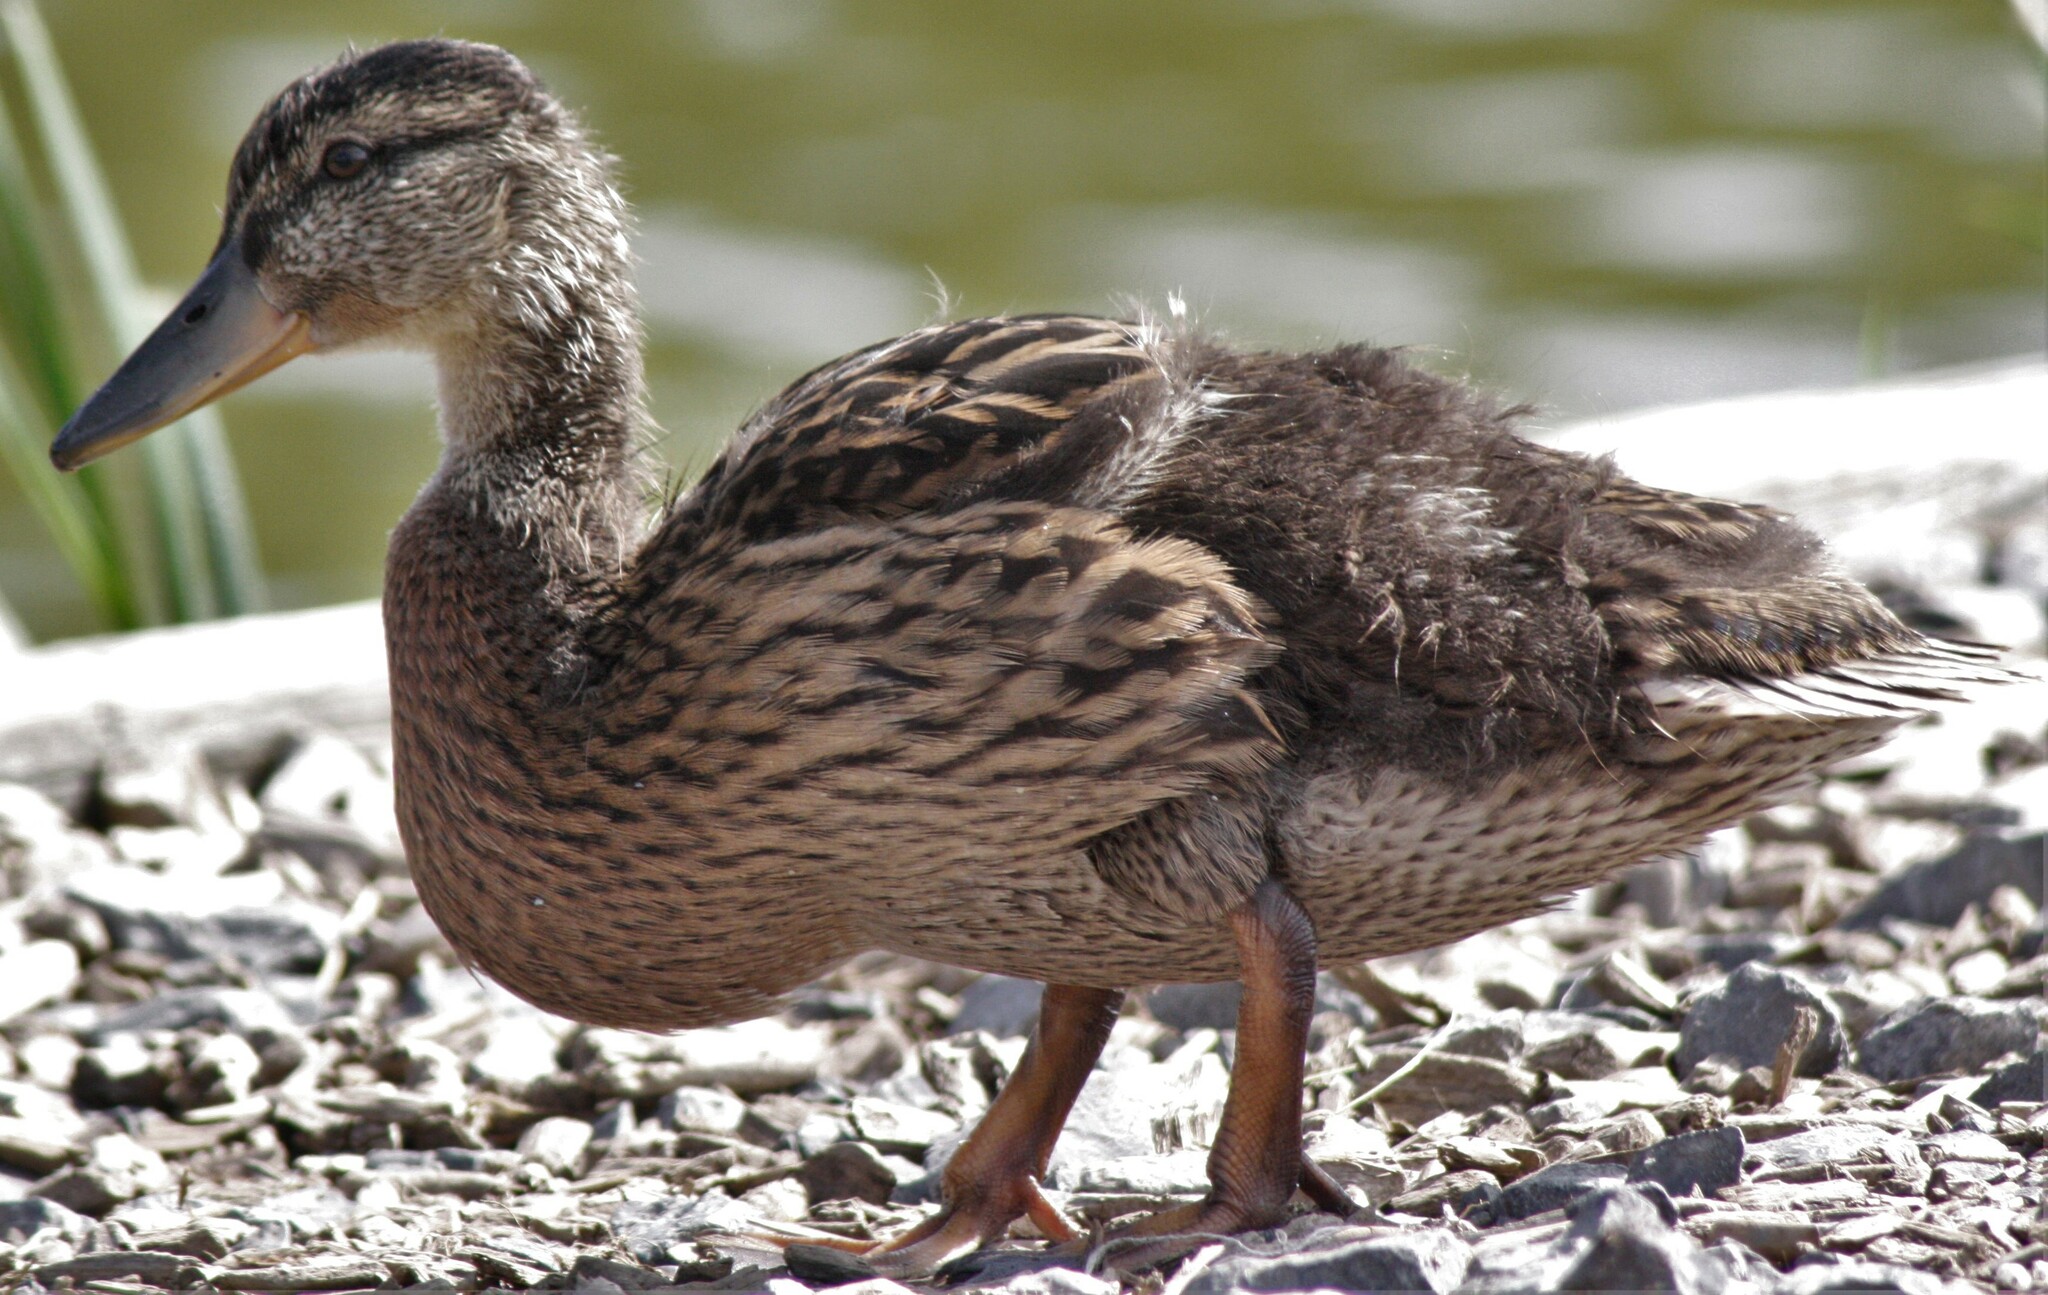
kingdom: Animalia
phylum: Chordata
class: Aves
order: Anseriformes
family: Anatidae
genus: Anas
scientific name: Anas platyrhynchos
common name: Mallard
